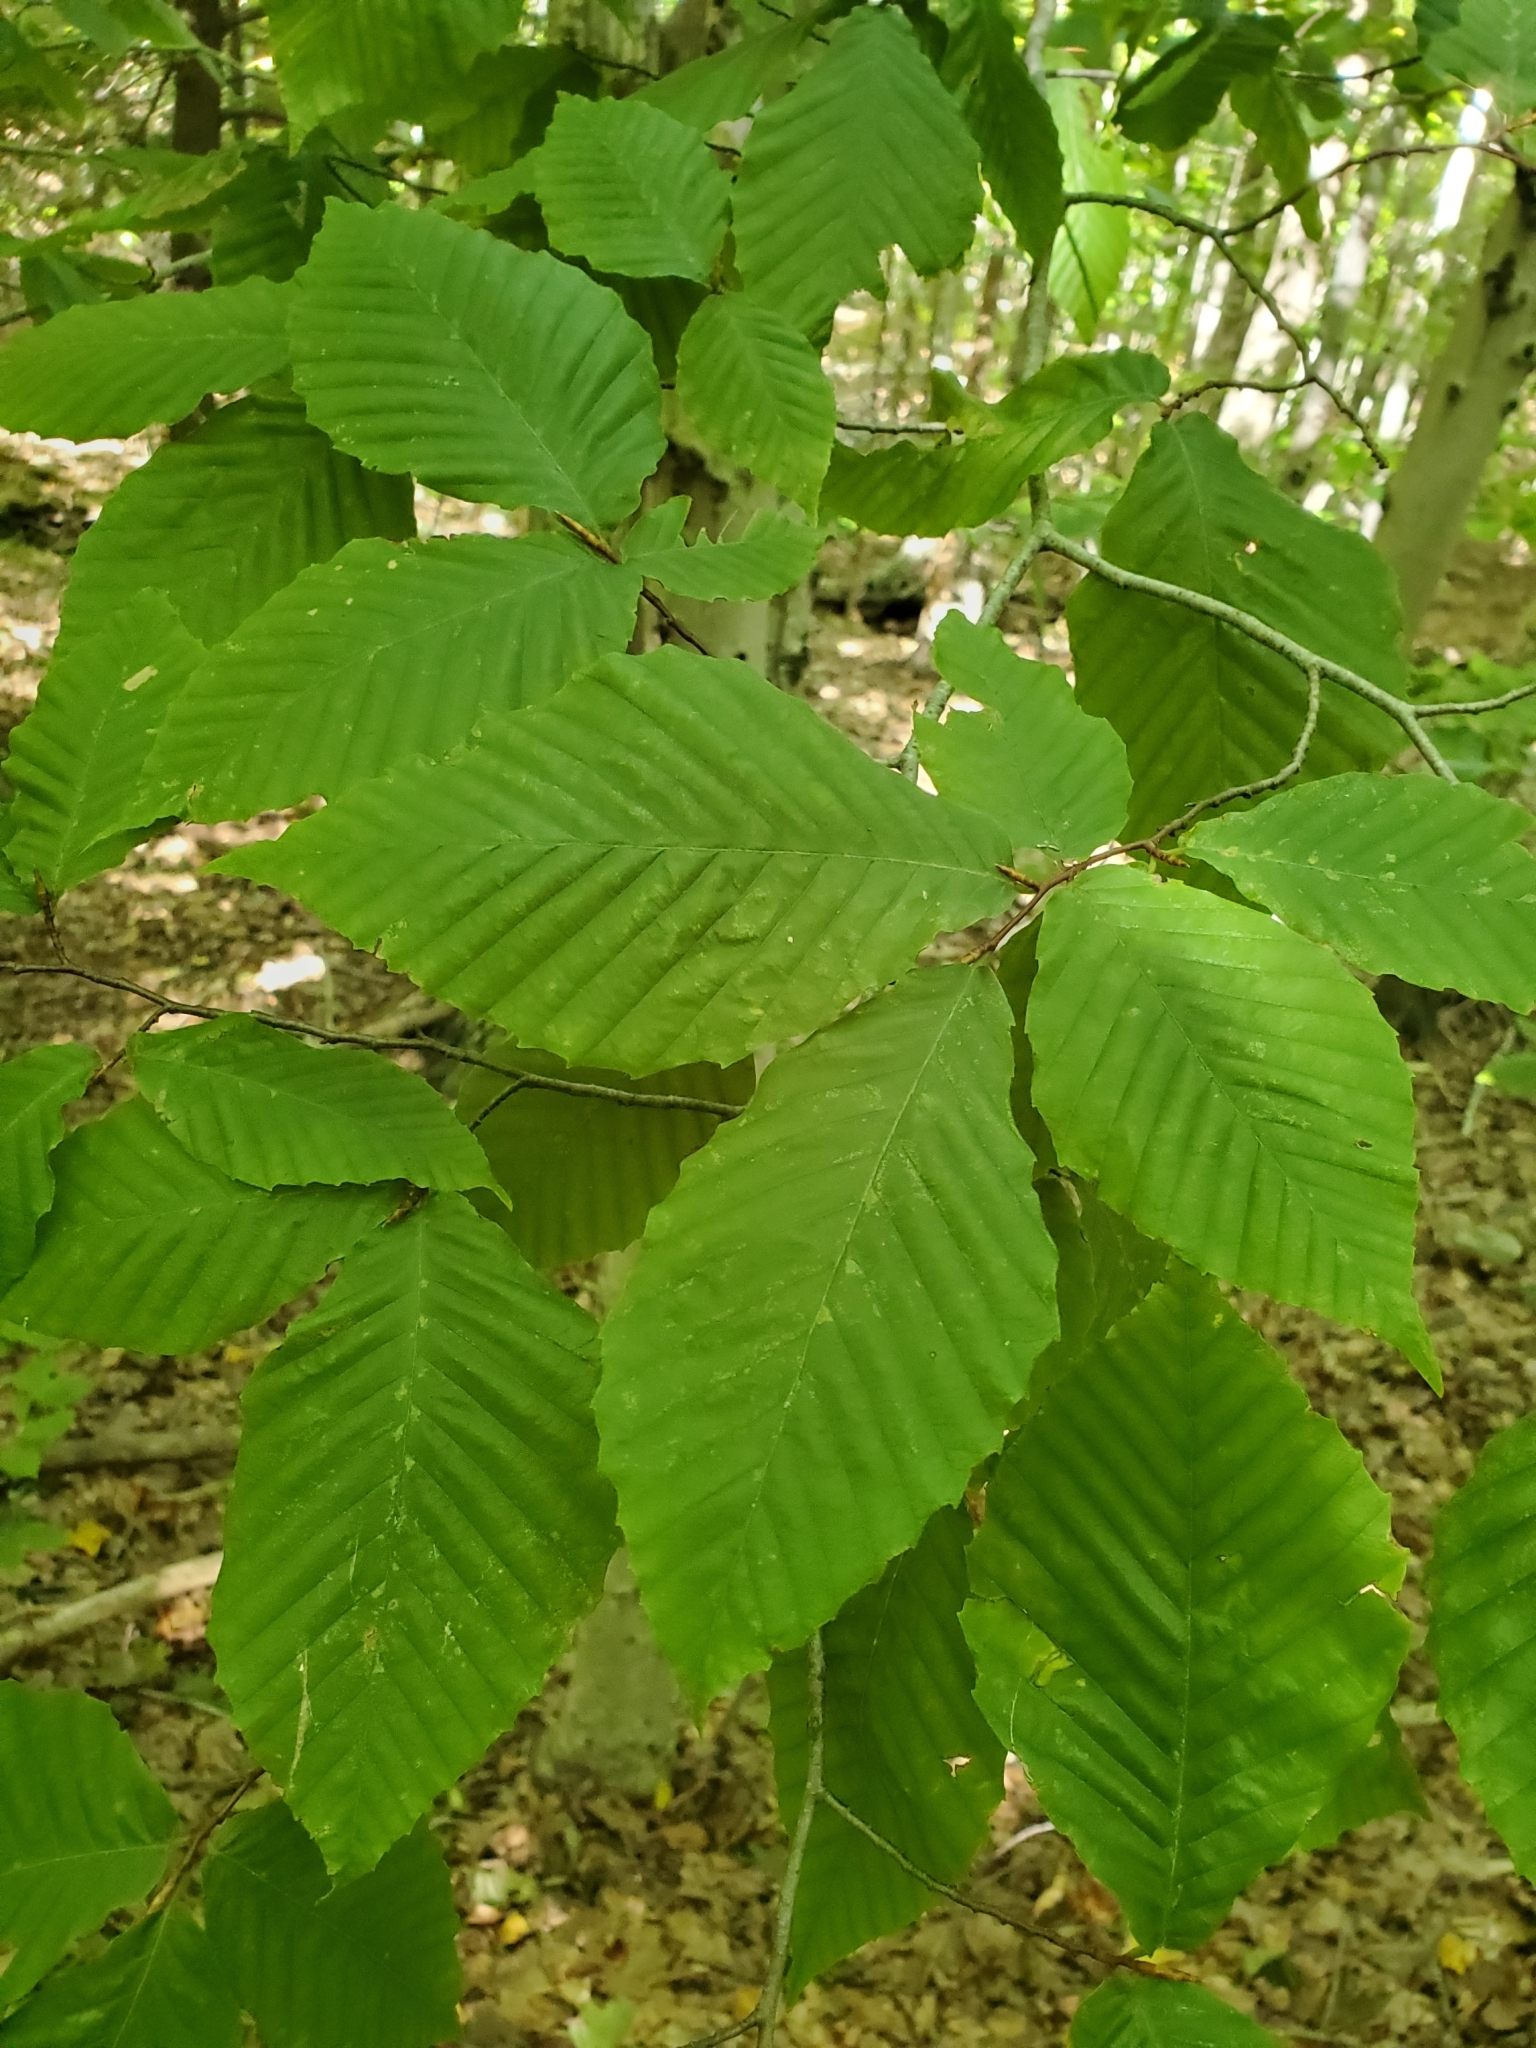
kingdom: Plantae
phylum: Tracheophyta
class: Magnoliopsida
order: Fagales
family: Fagaceae
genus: Fagus
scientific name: Fagus grandifolia
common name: American beech
